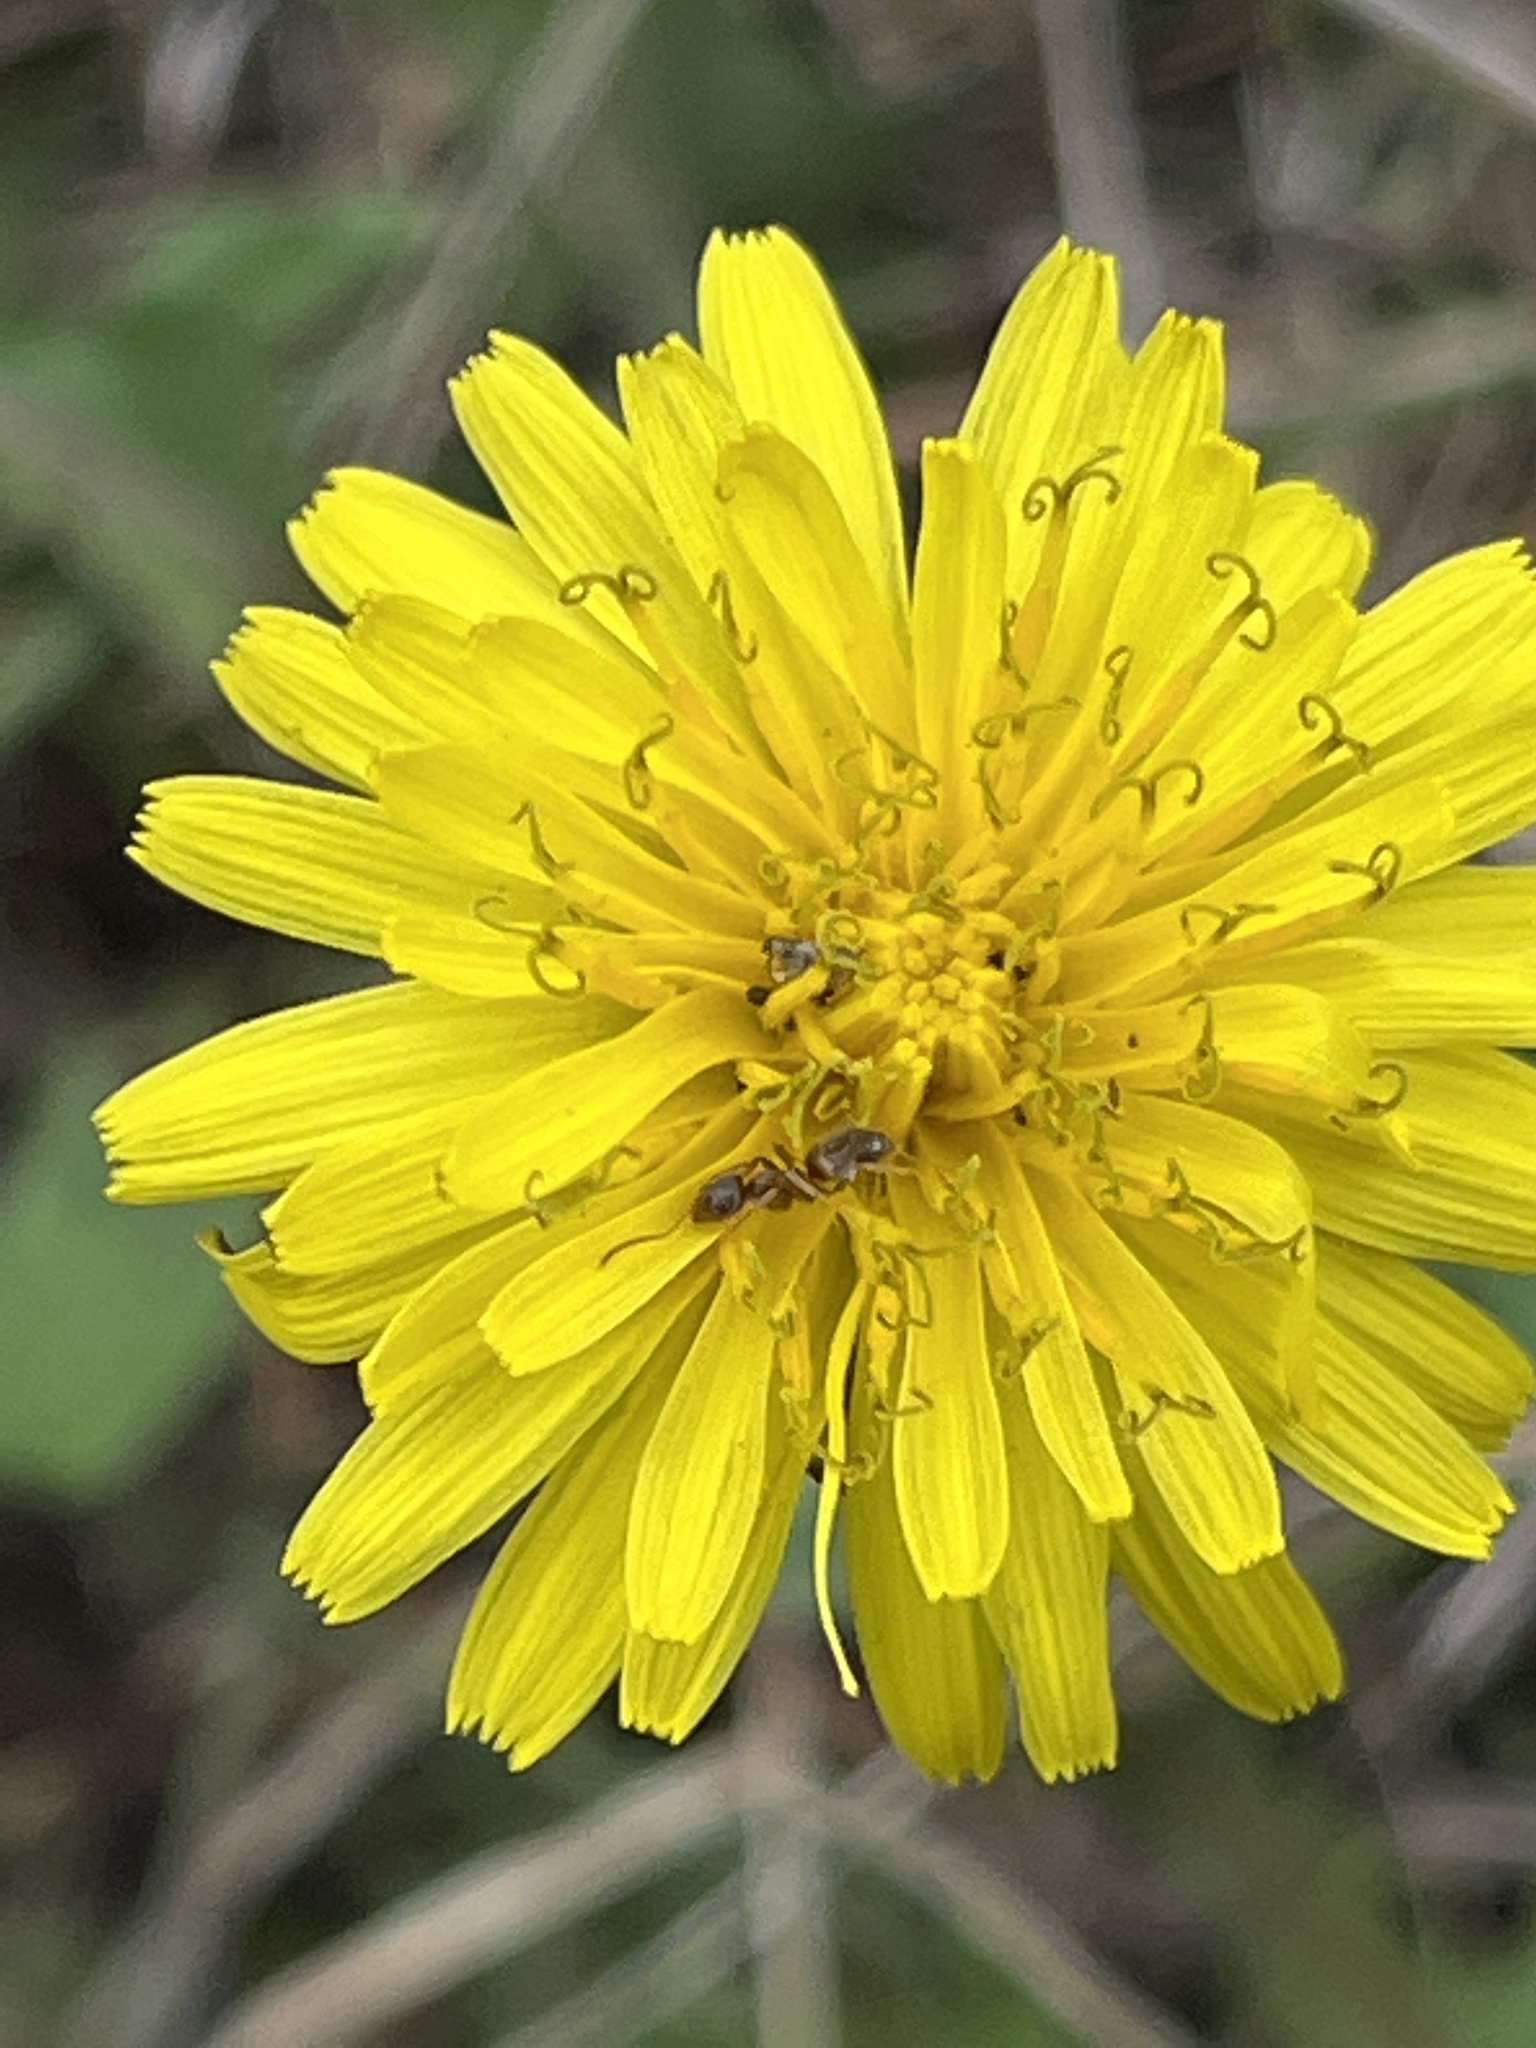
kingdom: Animalia
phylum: Arthropoda
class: Insecta
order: Hymenoptera
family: Formicidae
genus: Tapinoma
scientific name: Tapinoma sessile
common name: Odorous house ant
